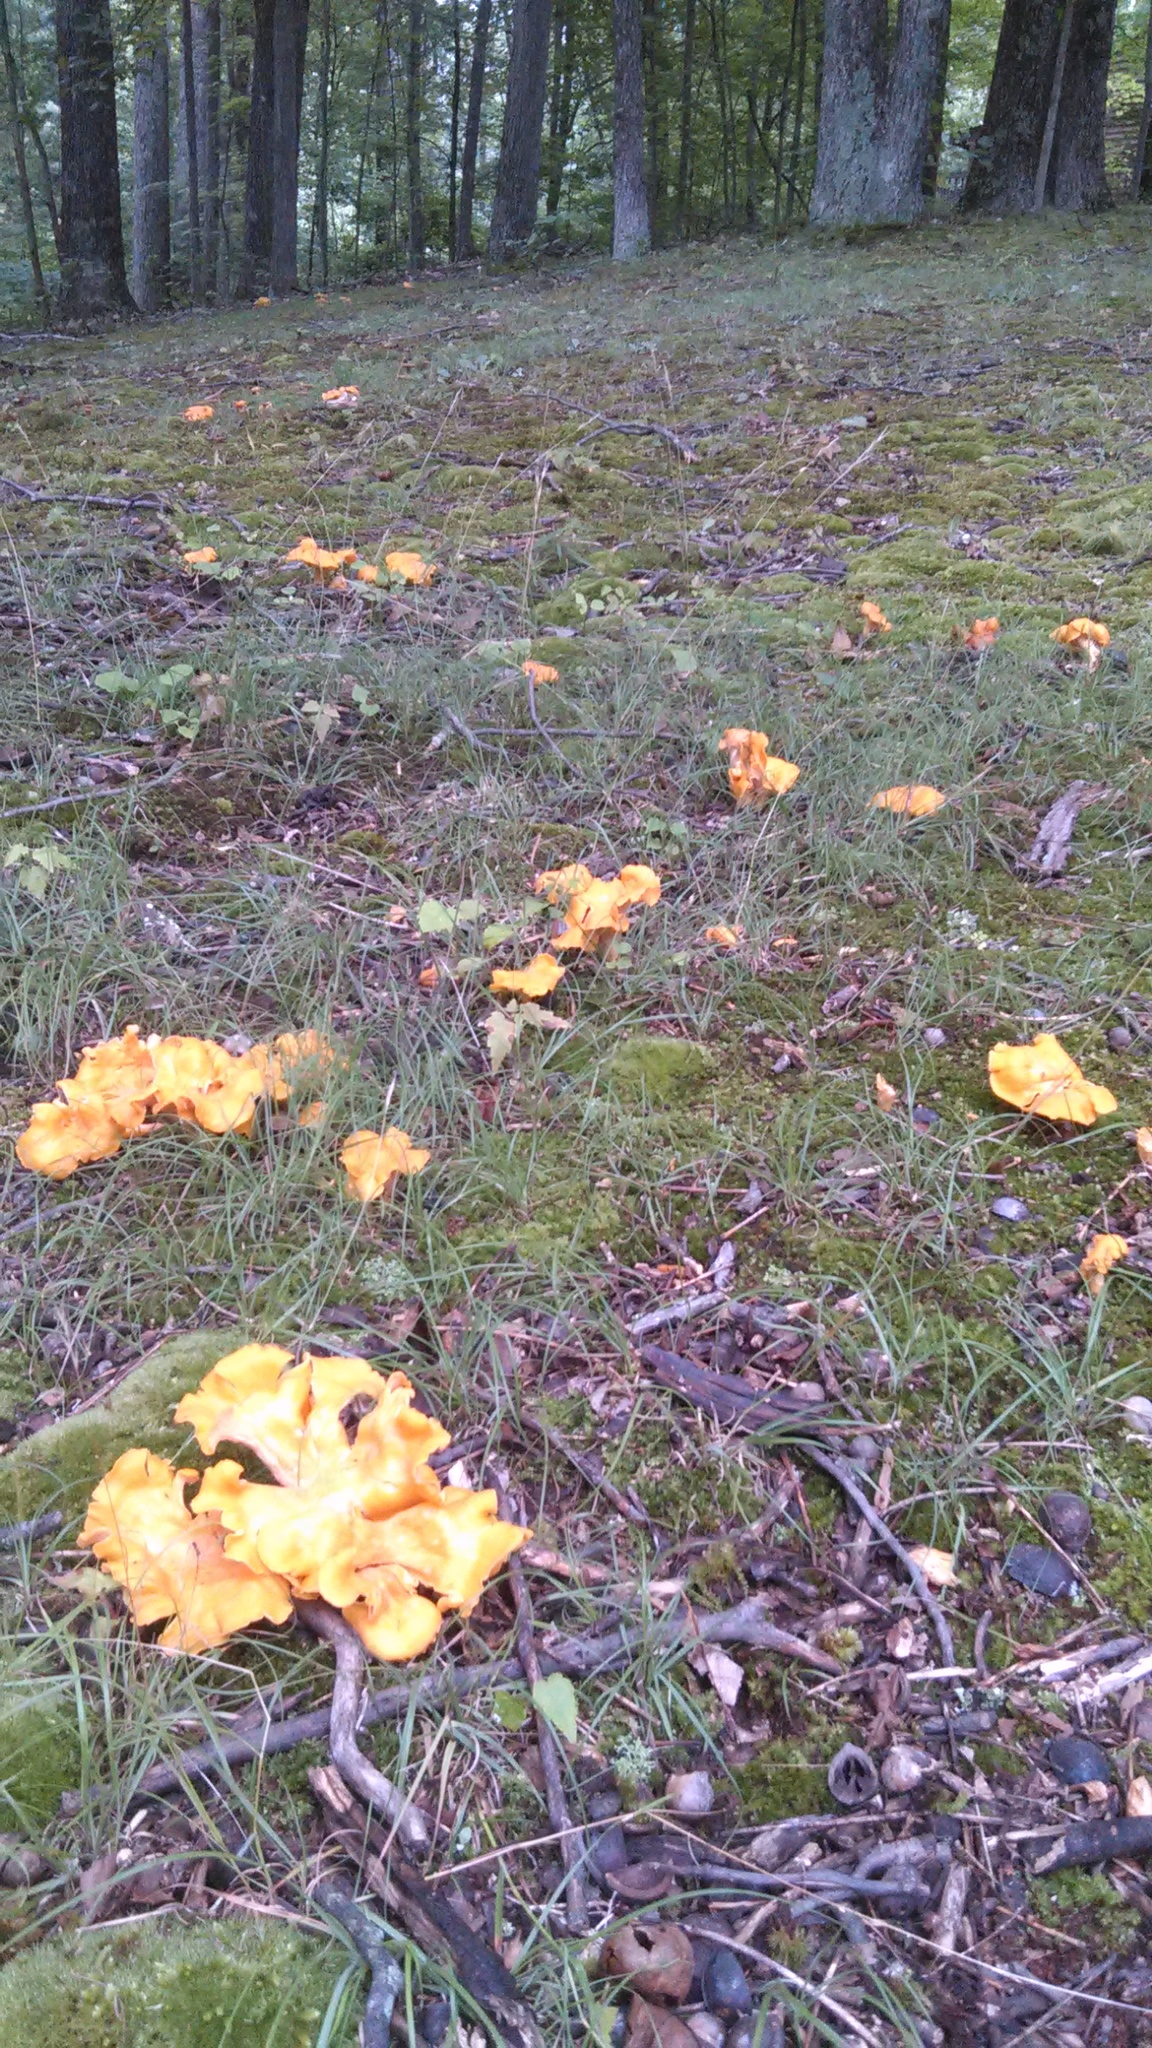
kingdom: Fungi
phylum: Basidiomycota
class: Agaricomycetes
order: Cantharellales
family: Hydnaceae
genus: Cantharellus
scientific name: Cantharellus flavolateritius
